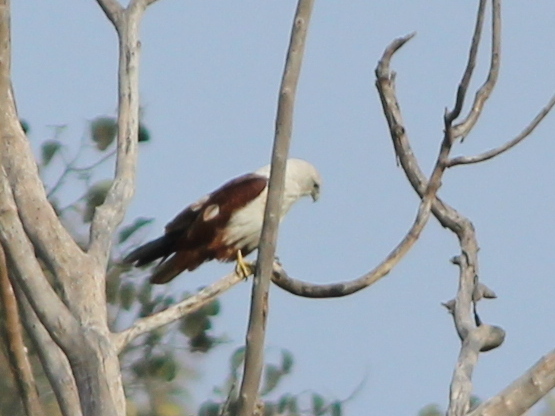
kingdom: Animalia
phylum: Chordata
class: Aves
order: Accipitriformes
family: Accipitridae
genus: Haliastur
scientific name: Haliastur indus
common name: Brahminy kite
